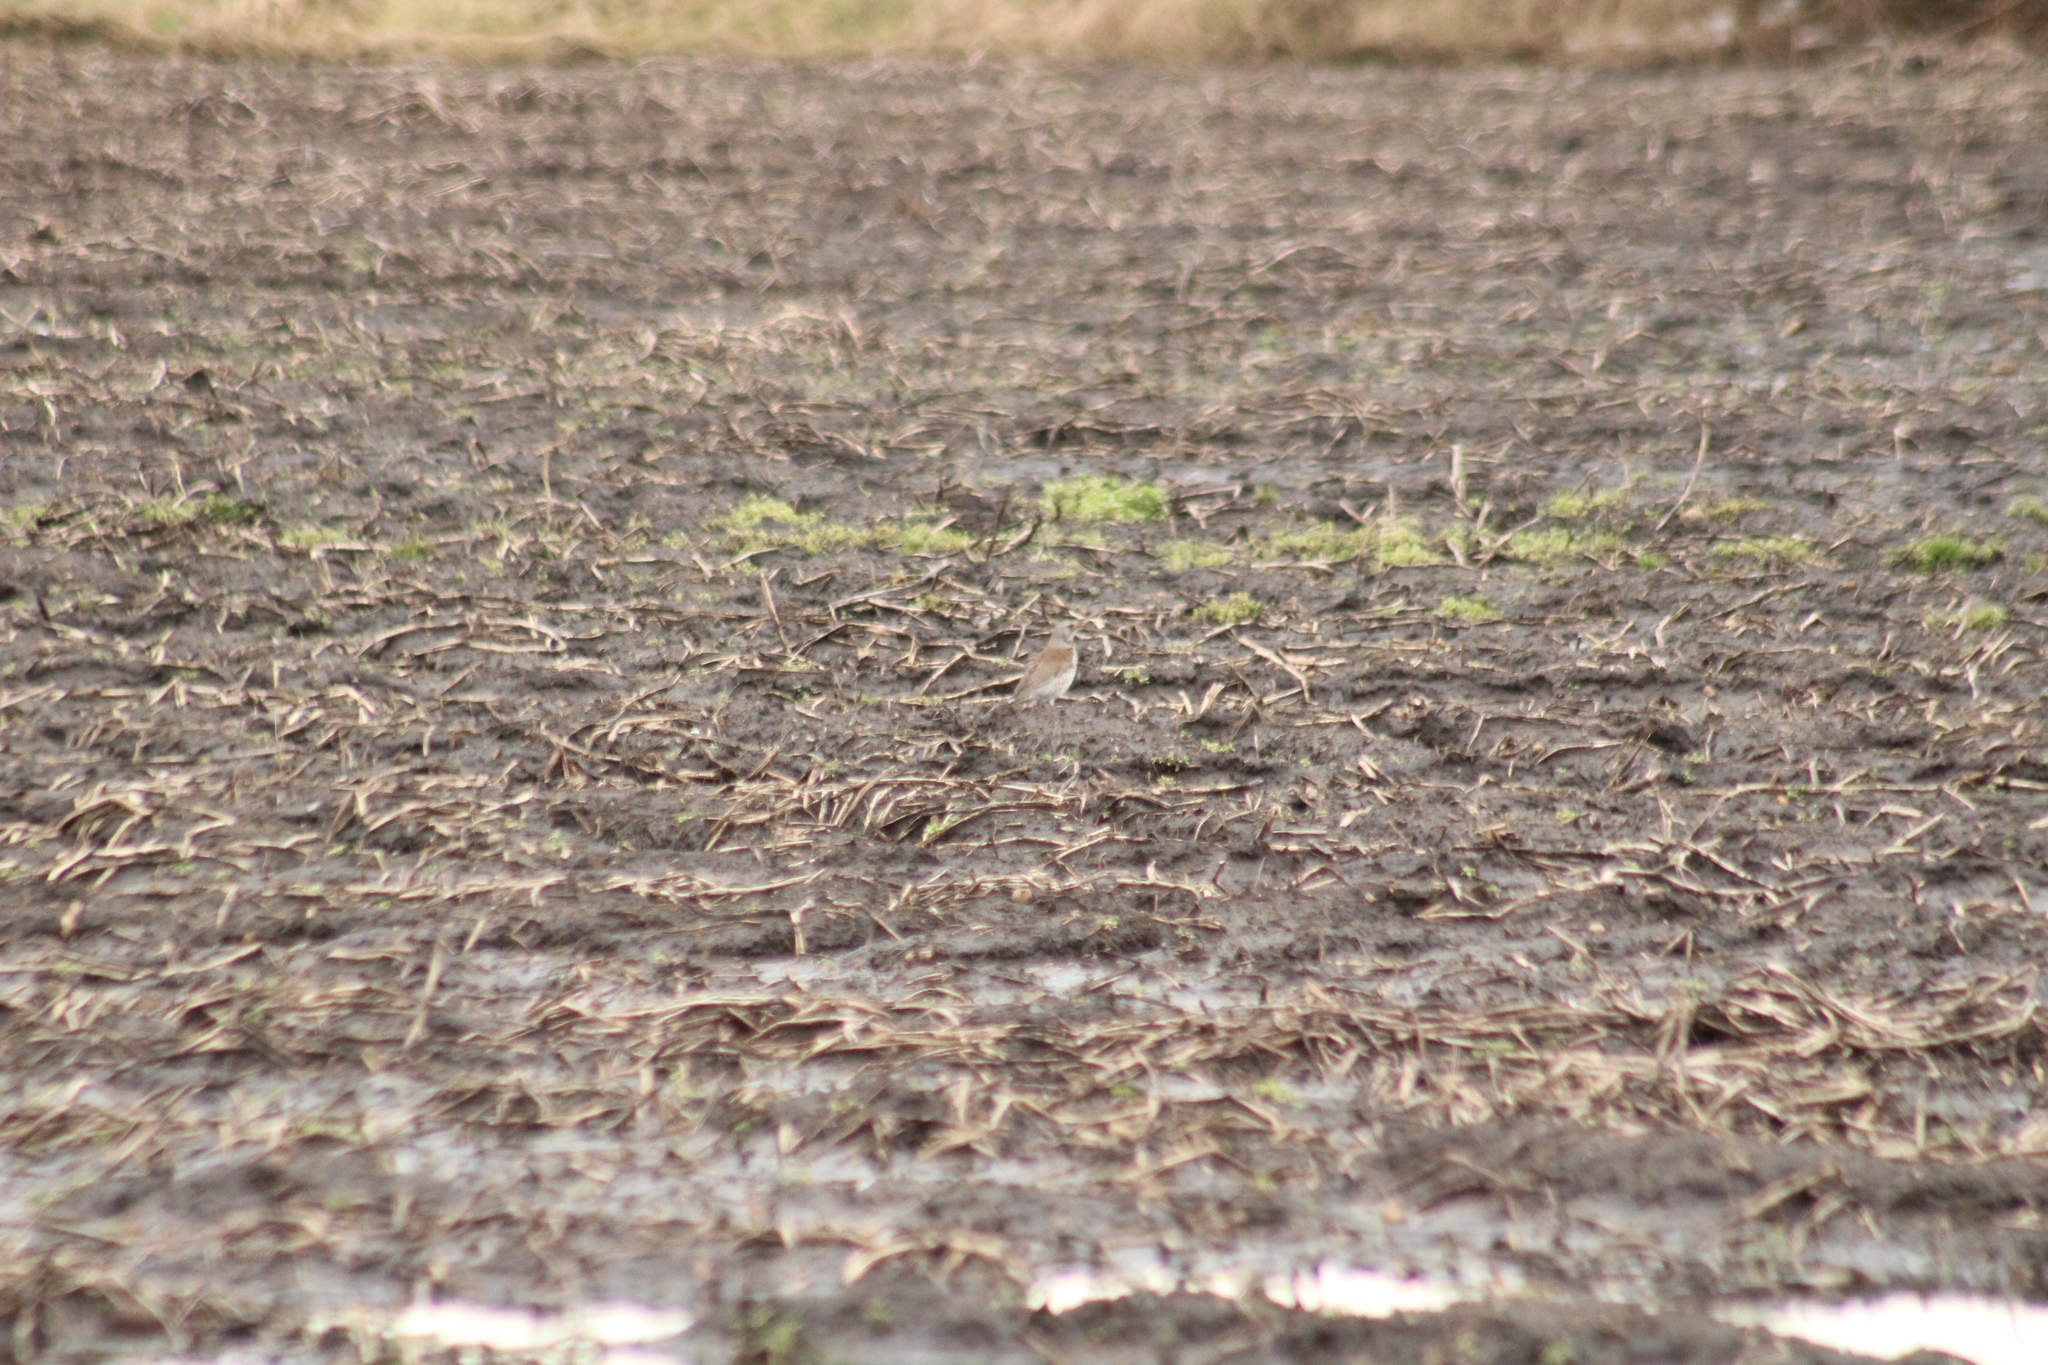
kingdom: Animalia
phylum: Chordata
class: Aves
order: Passeriformes
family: Turdidae
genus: Turdus
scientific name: Turdus pilaris
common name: Fieldfare
